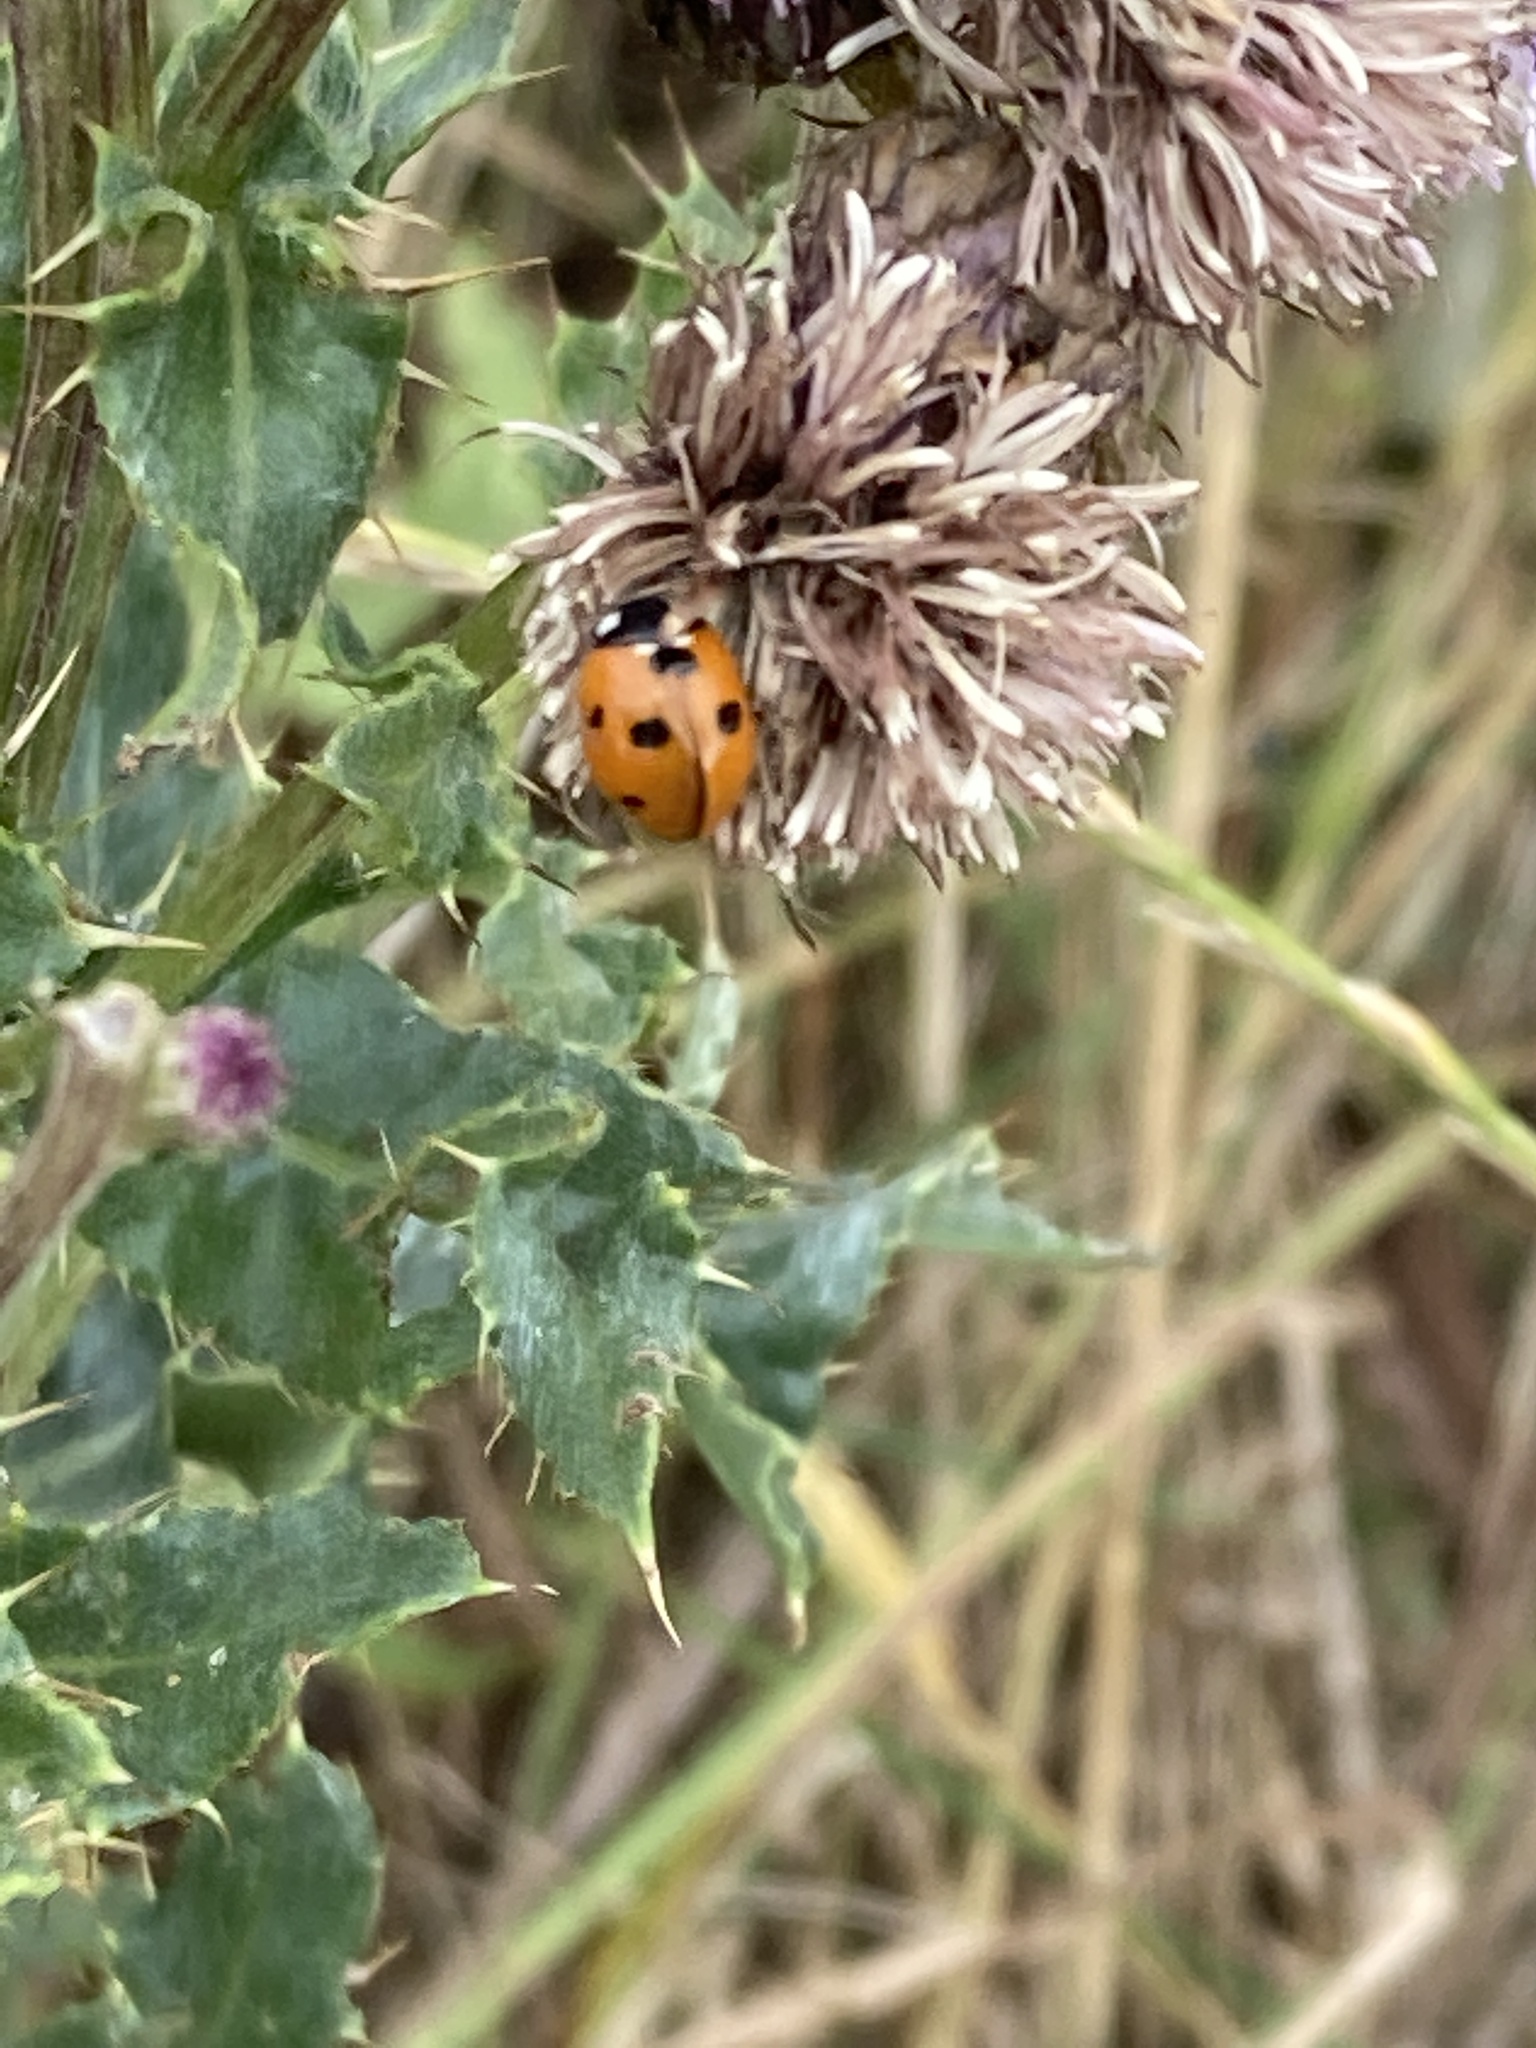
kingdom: Animalia
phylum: Arthropoda
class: Insecta
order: Coleoptera
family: Coccinellidae
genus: Coccinella
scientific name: Coccinella septempunctata
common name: Sevenspotted lady beetle
